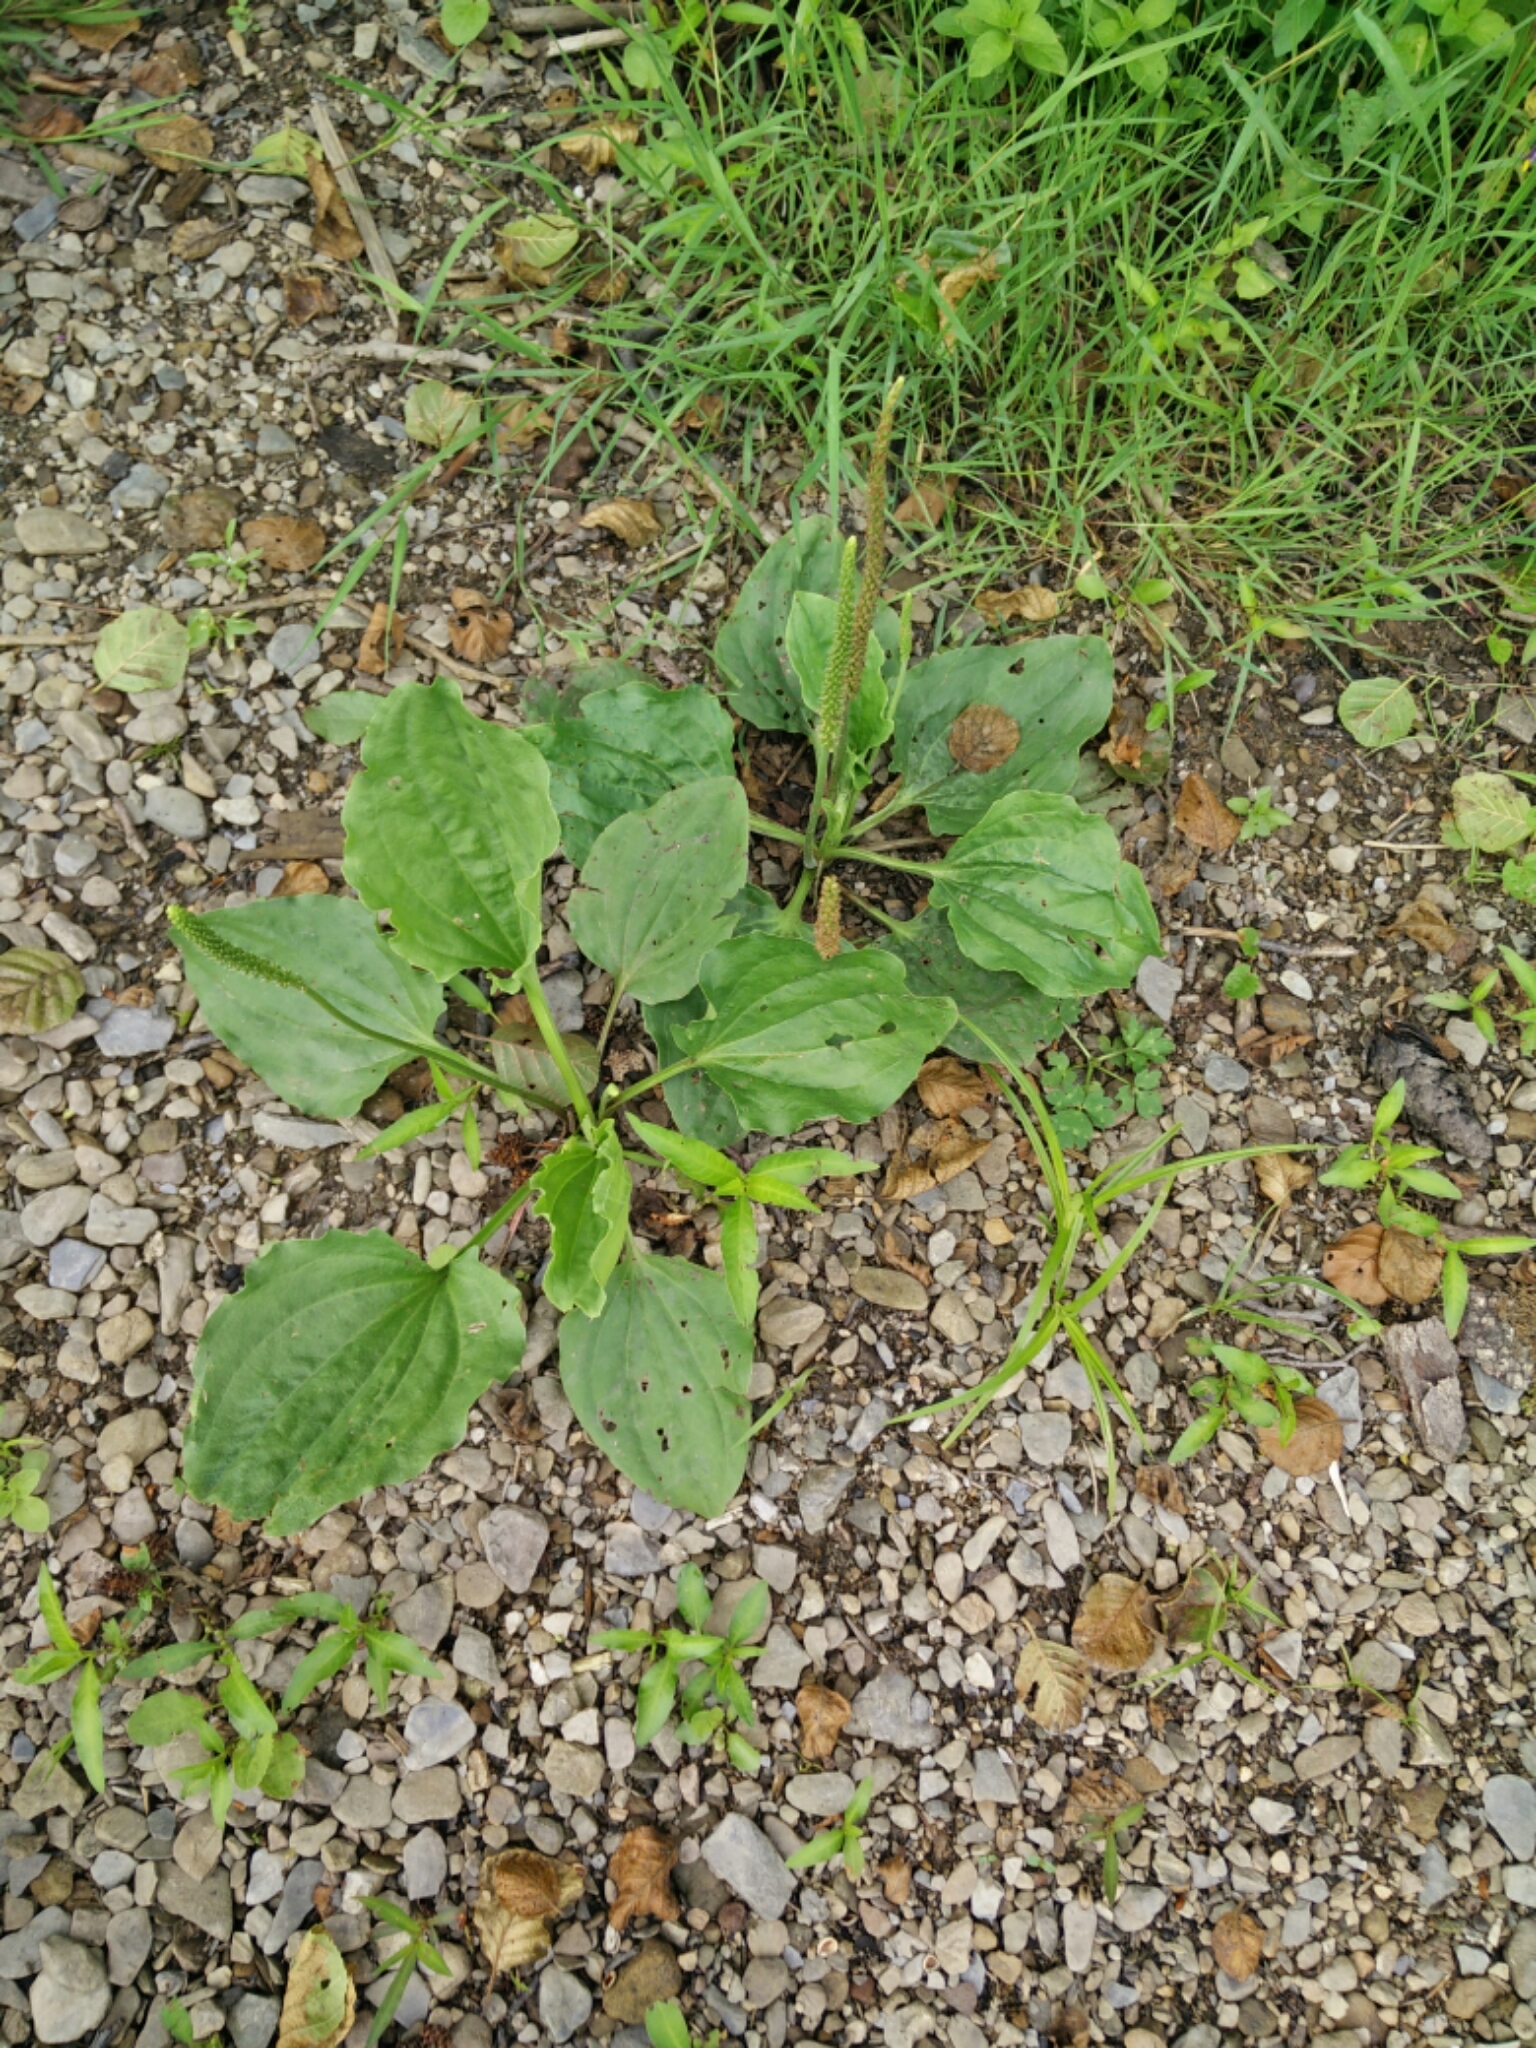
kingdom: Plantae
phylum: Tracheophyta
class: Magnoliopsida
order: Lamiales
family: Plantaginaceae
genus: Plantago
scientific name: Plantago major
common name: Common plantain
